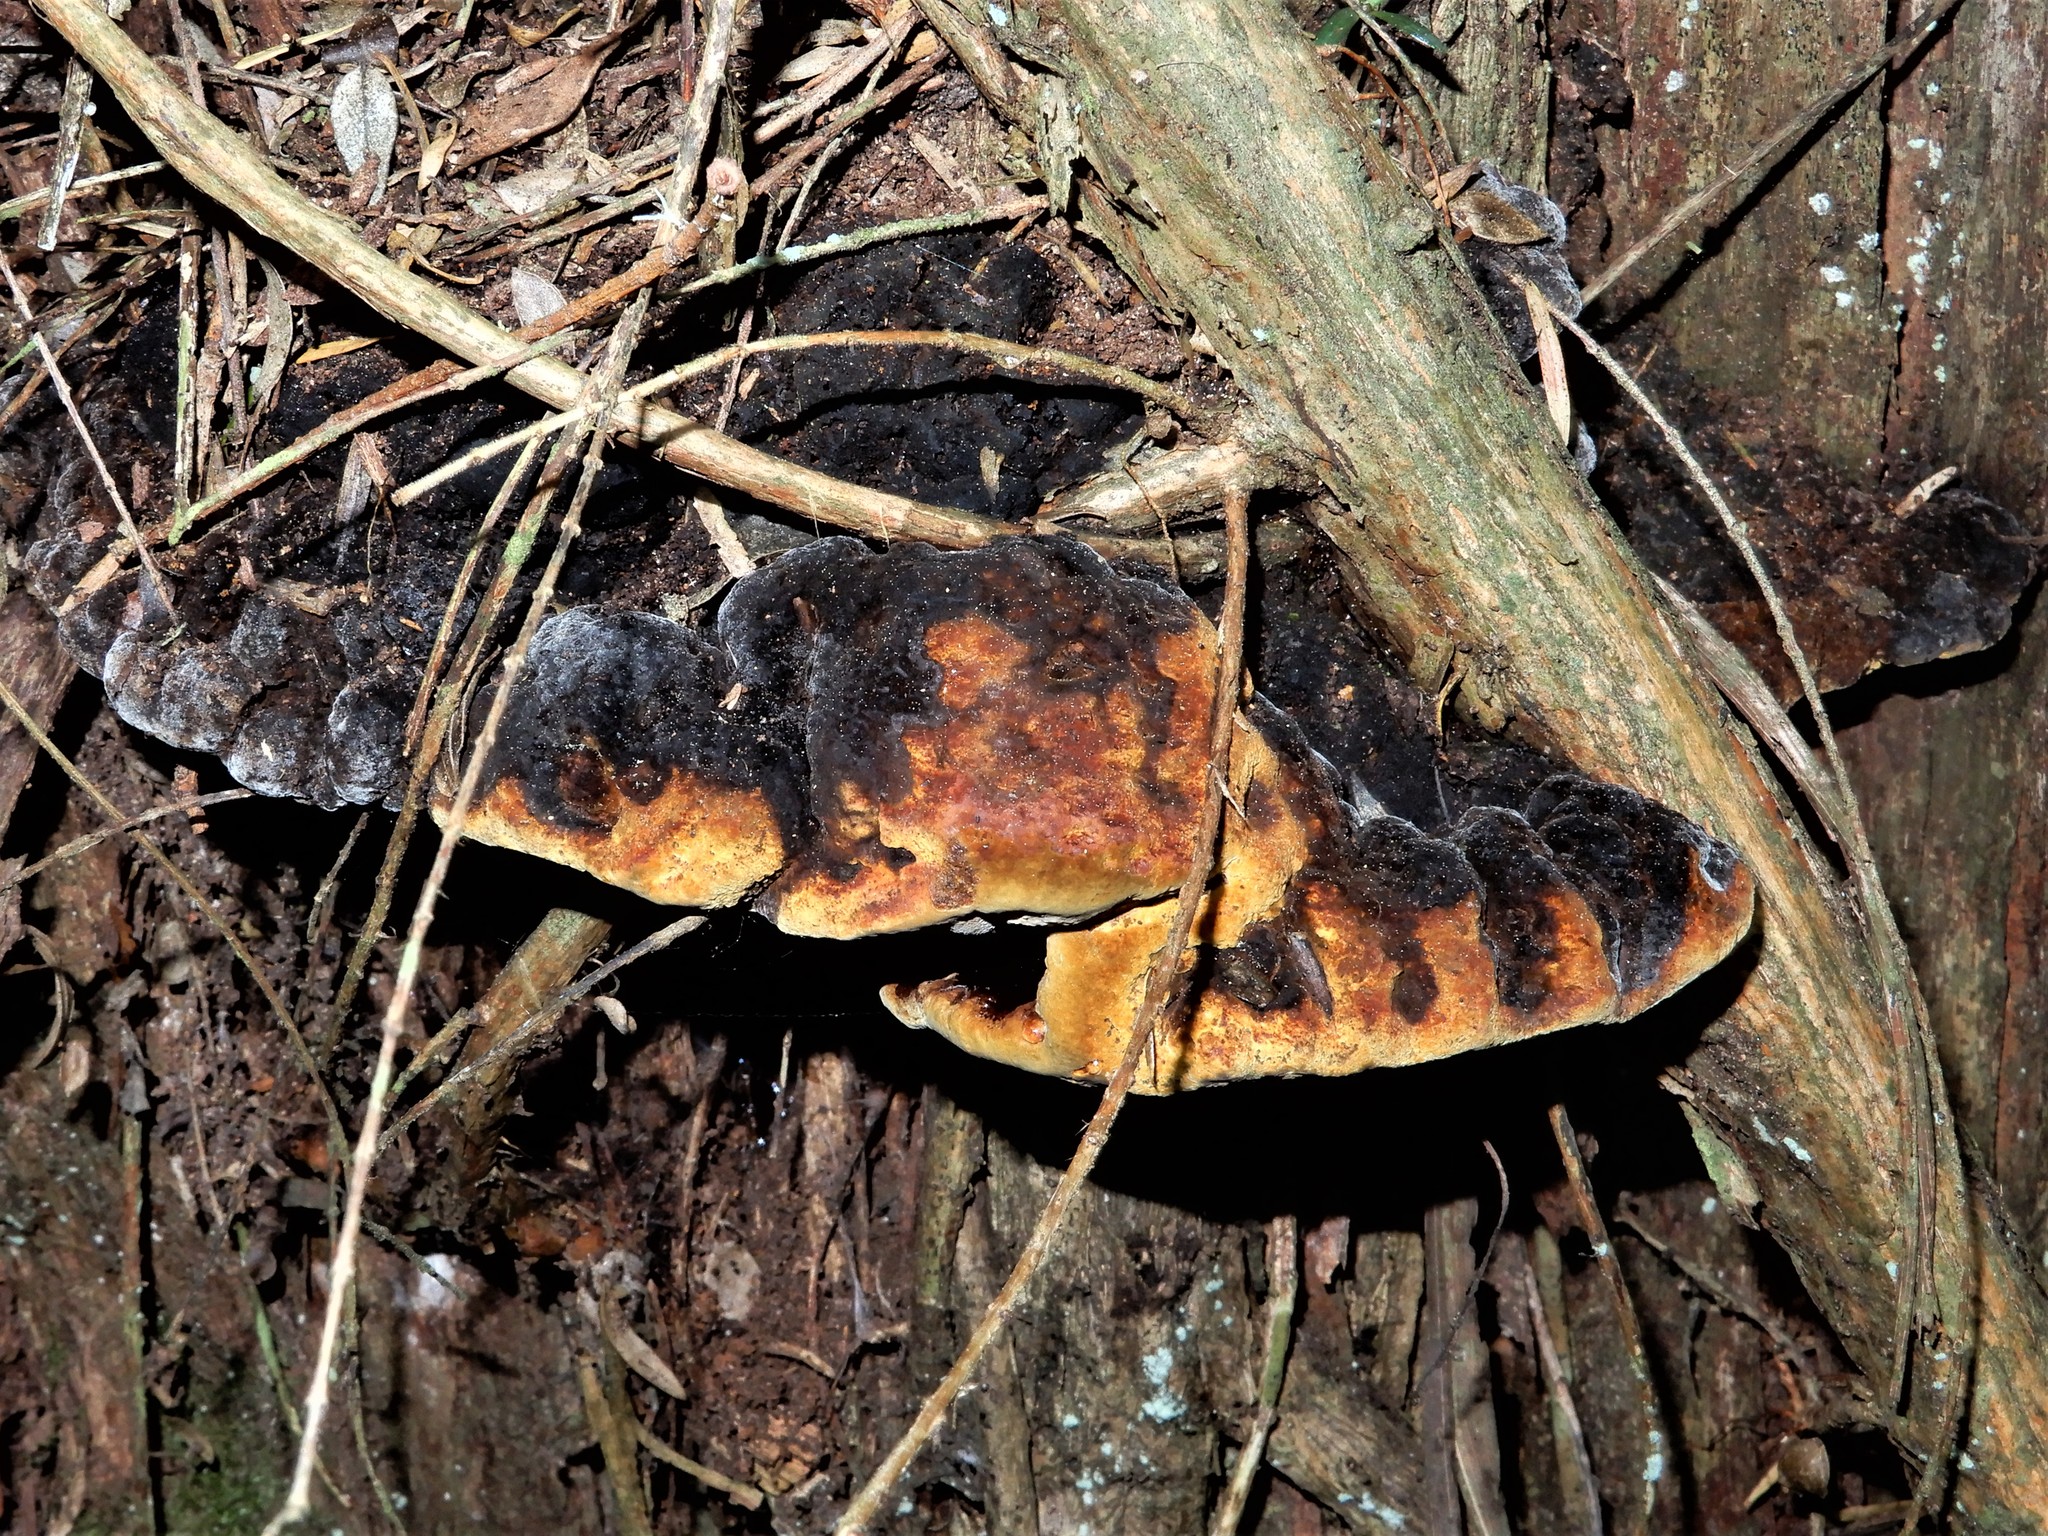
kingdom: Fungi
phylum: Basidiomycota
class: Agaricomycetes
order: Hymenochaetales
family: Hymenochaetaceae
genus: Phellinus
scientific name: Phellinus gilvus
